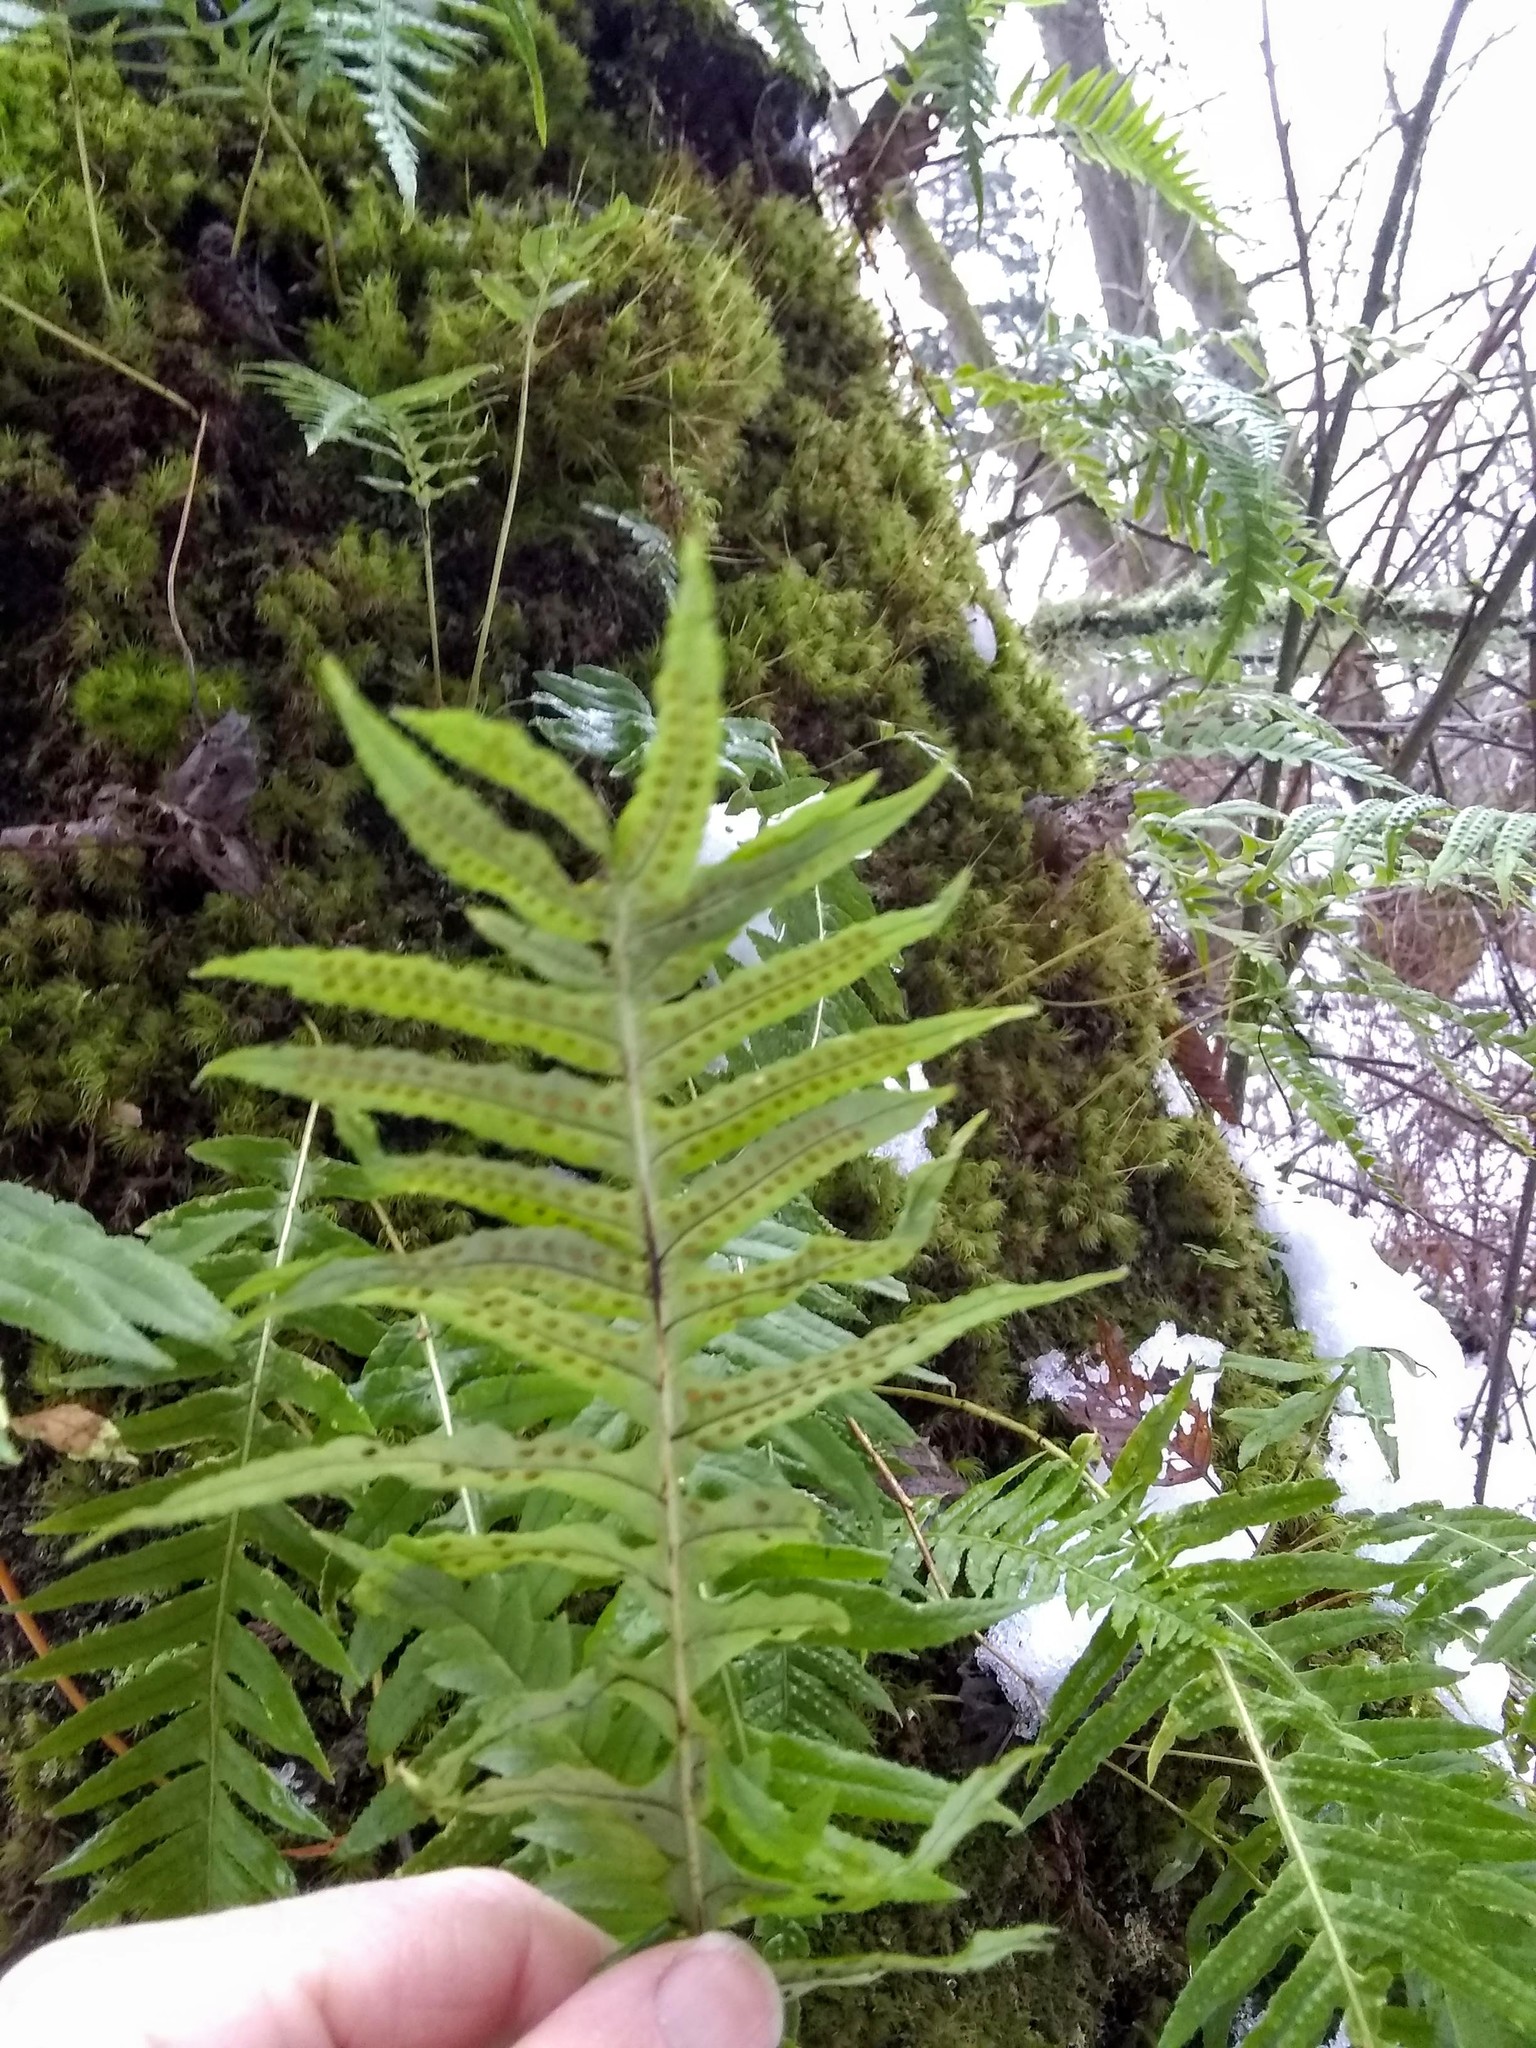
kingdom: Plantae
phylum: Tracheophyta
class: Polypodiopsida
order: Polypodiales
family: Polypodiaceae
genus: Polypodium
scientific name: Polypodium glycyrrhiza
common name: Licorice fern
